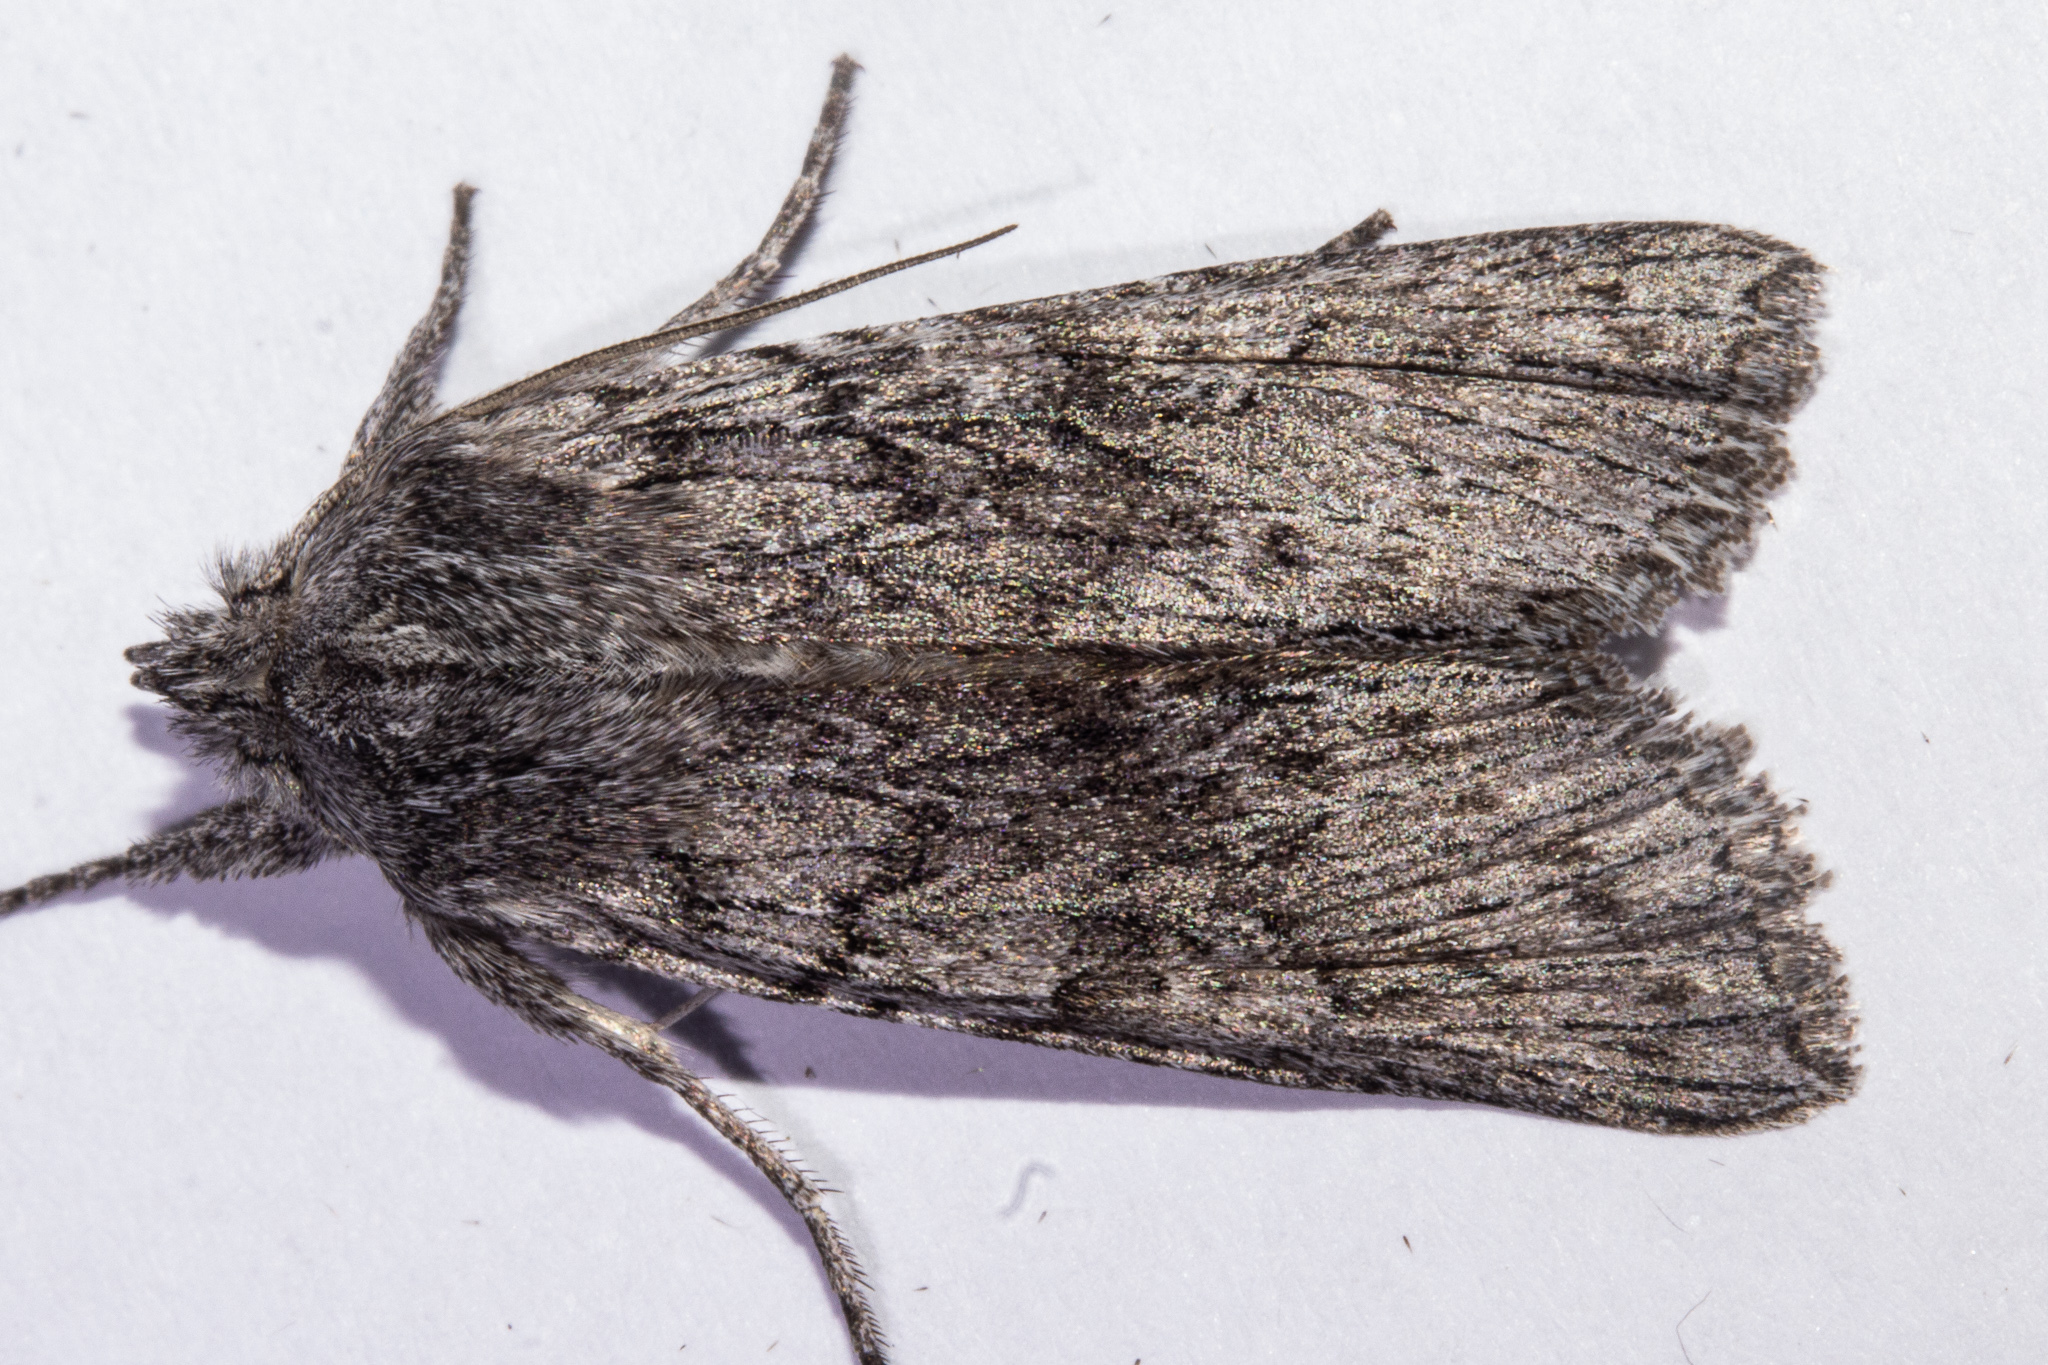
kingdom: Animalia
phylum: Arthropoda
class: Insecta
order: Lepidoptera
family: Noctuidae
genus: Physetica
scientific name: Physetica phricias
